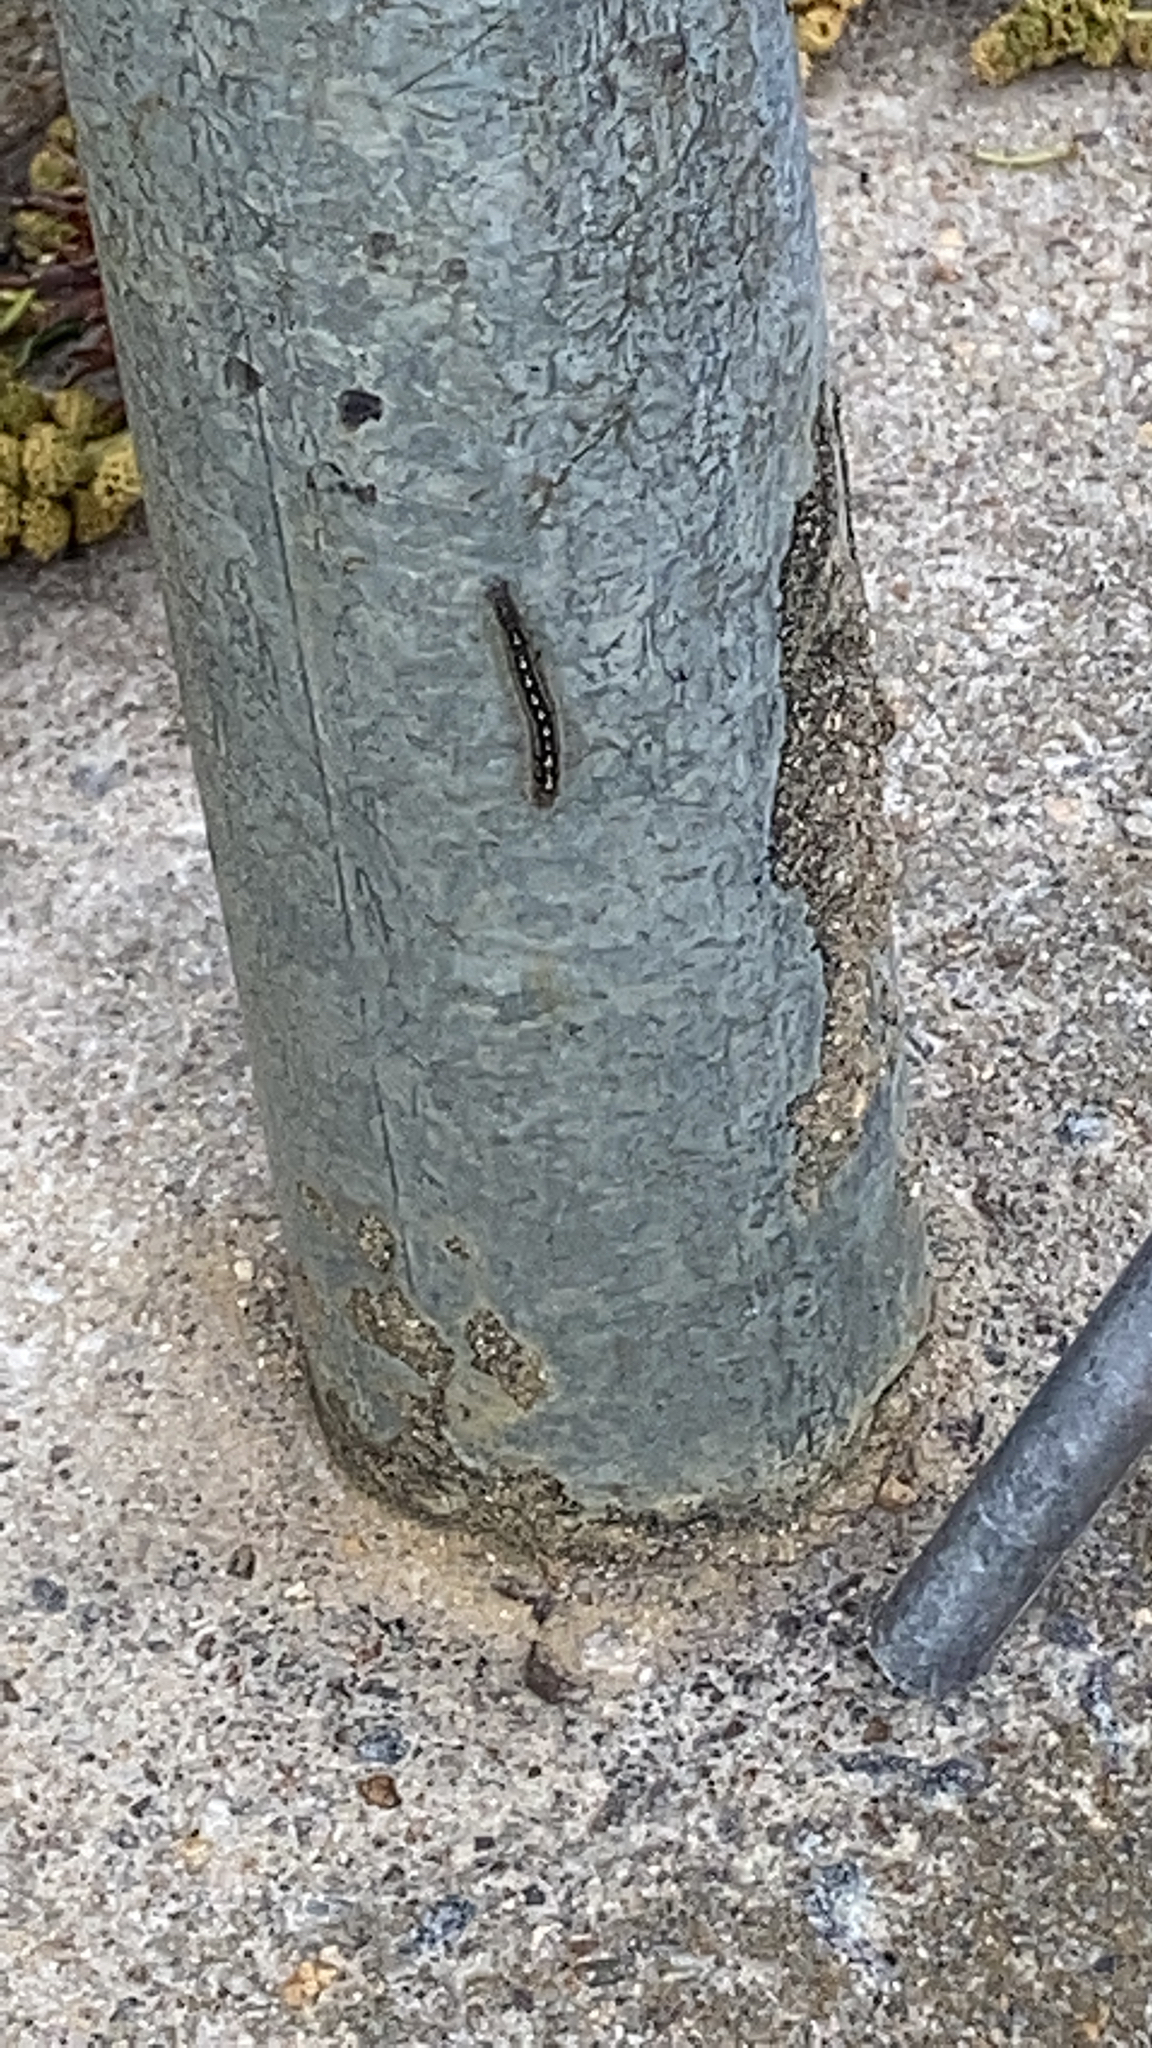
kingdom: Animalia
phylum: Arthropoda
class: Insecta
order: Lepidoptera
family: Lasiocampidae
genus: Malacosoma
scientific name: Malacosoma disstria
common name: Forest tent caterpillar
